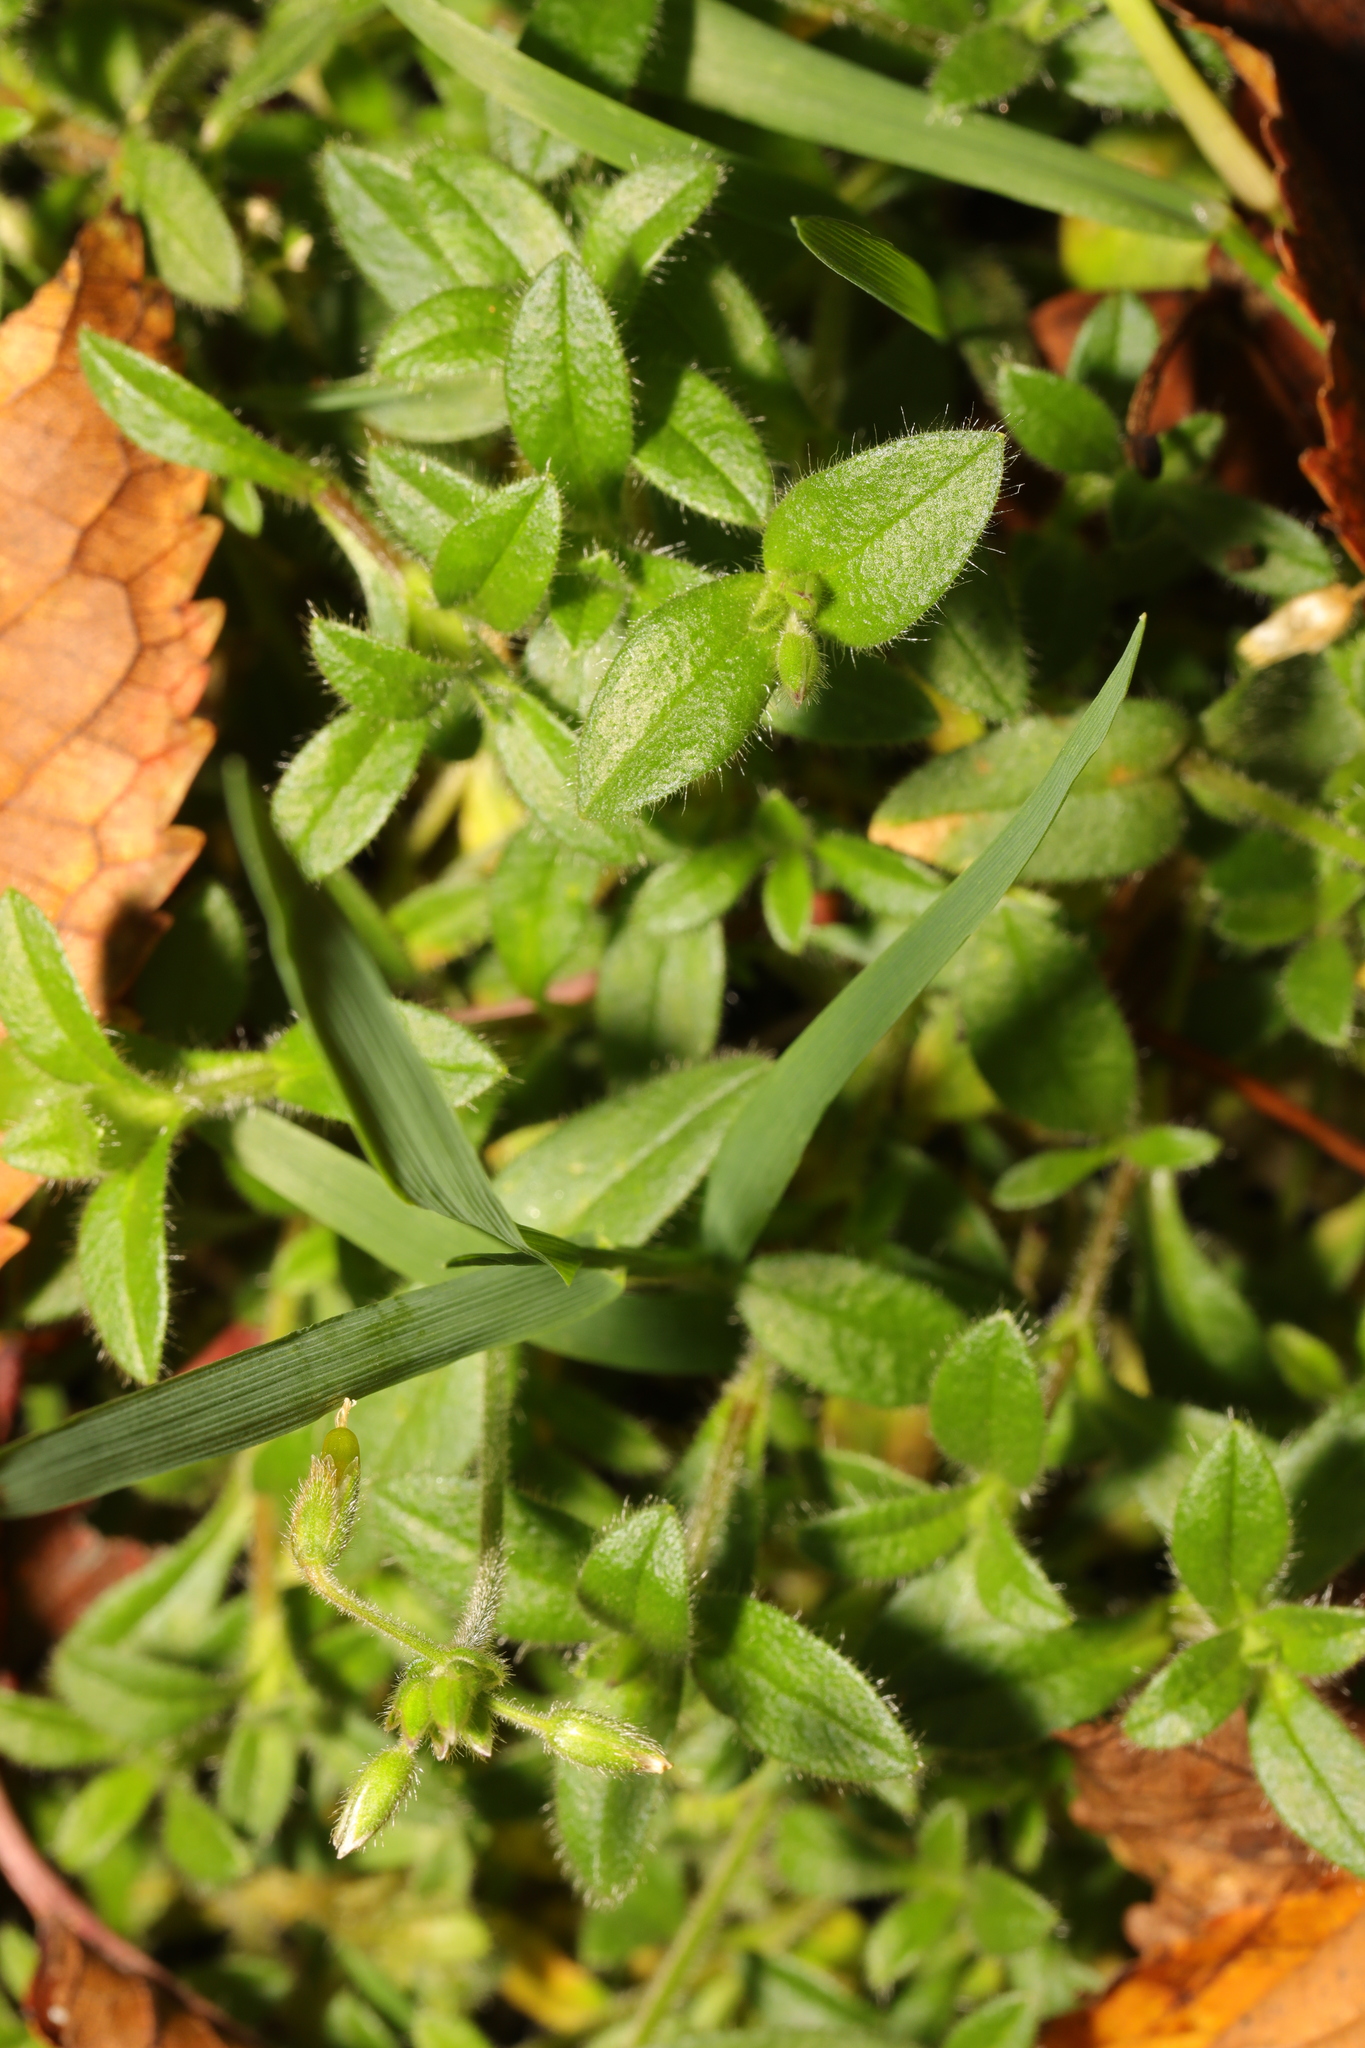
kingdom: Plantae
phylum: Tracheophyta
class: Magnoliopsida
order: Caryophyllales
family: Caryophyllaceae
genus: Cerastium
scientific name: Cerastium fontanum
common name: Common mouse-ear
